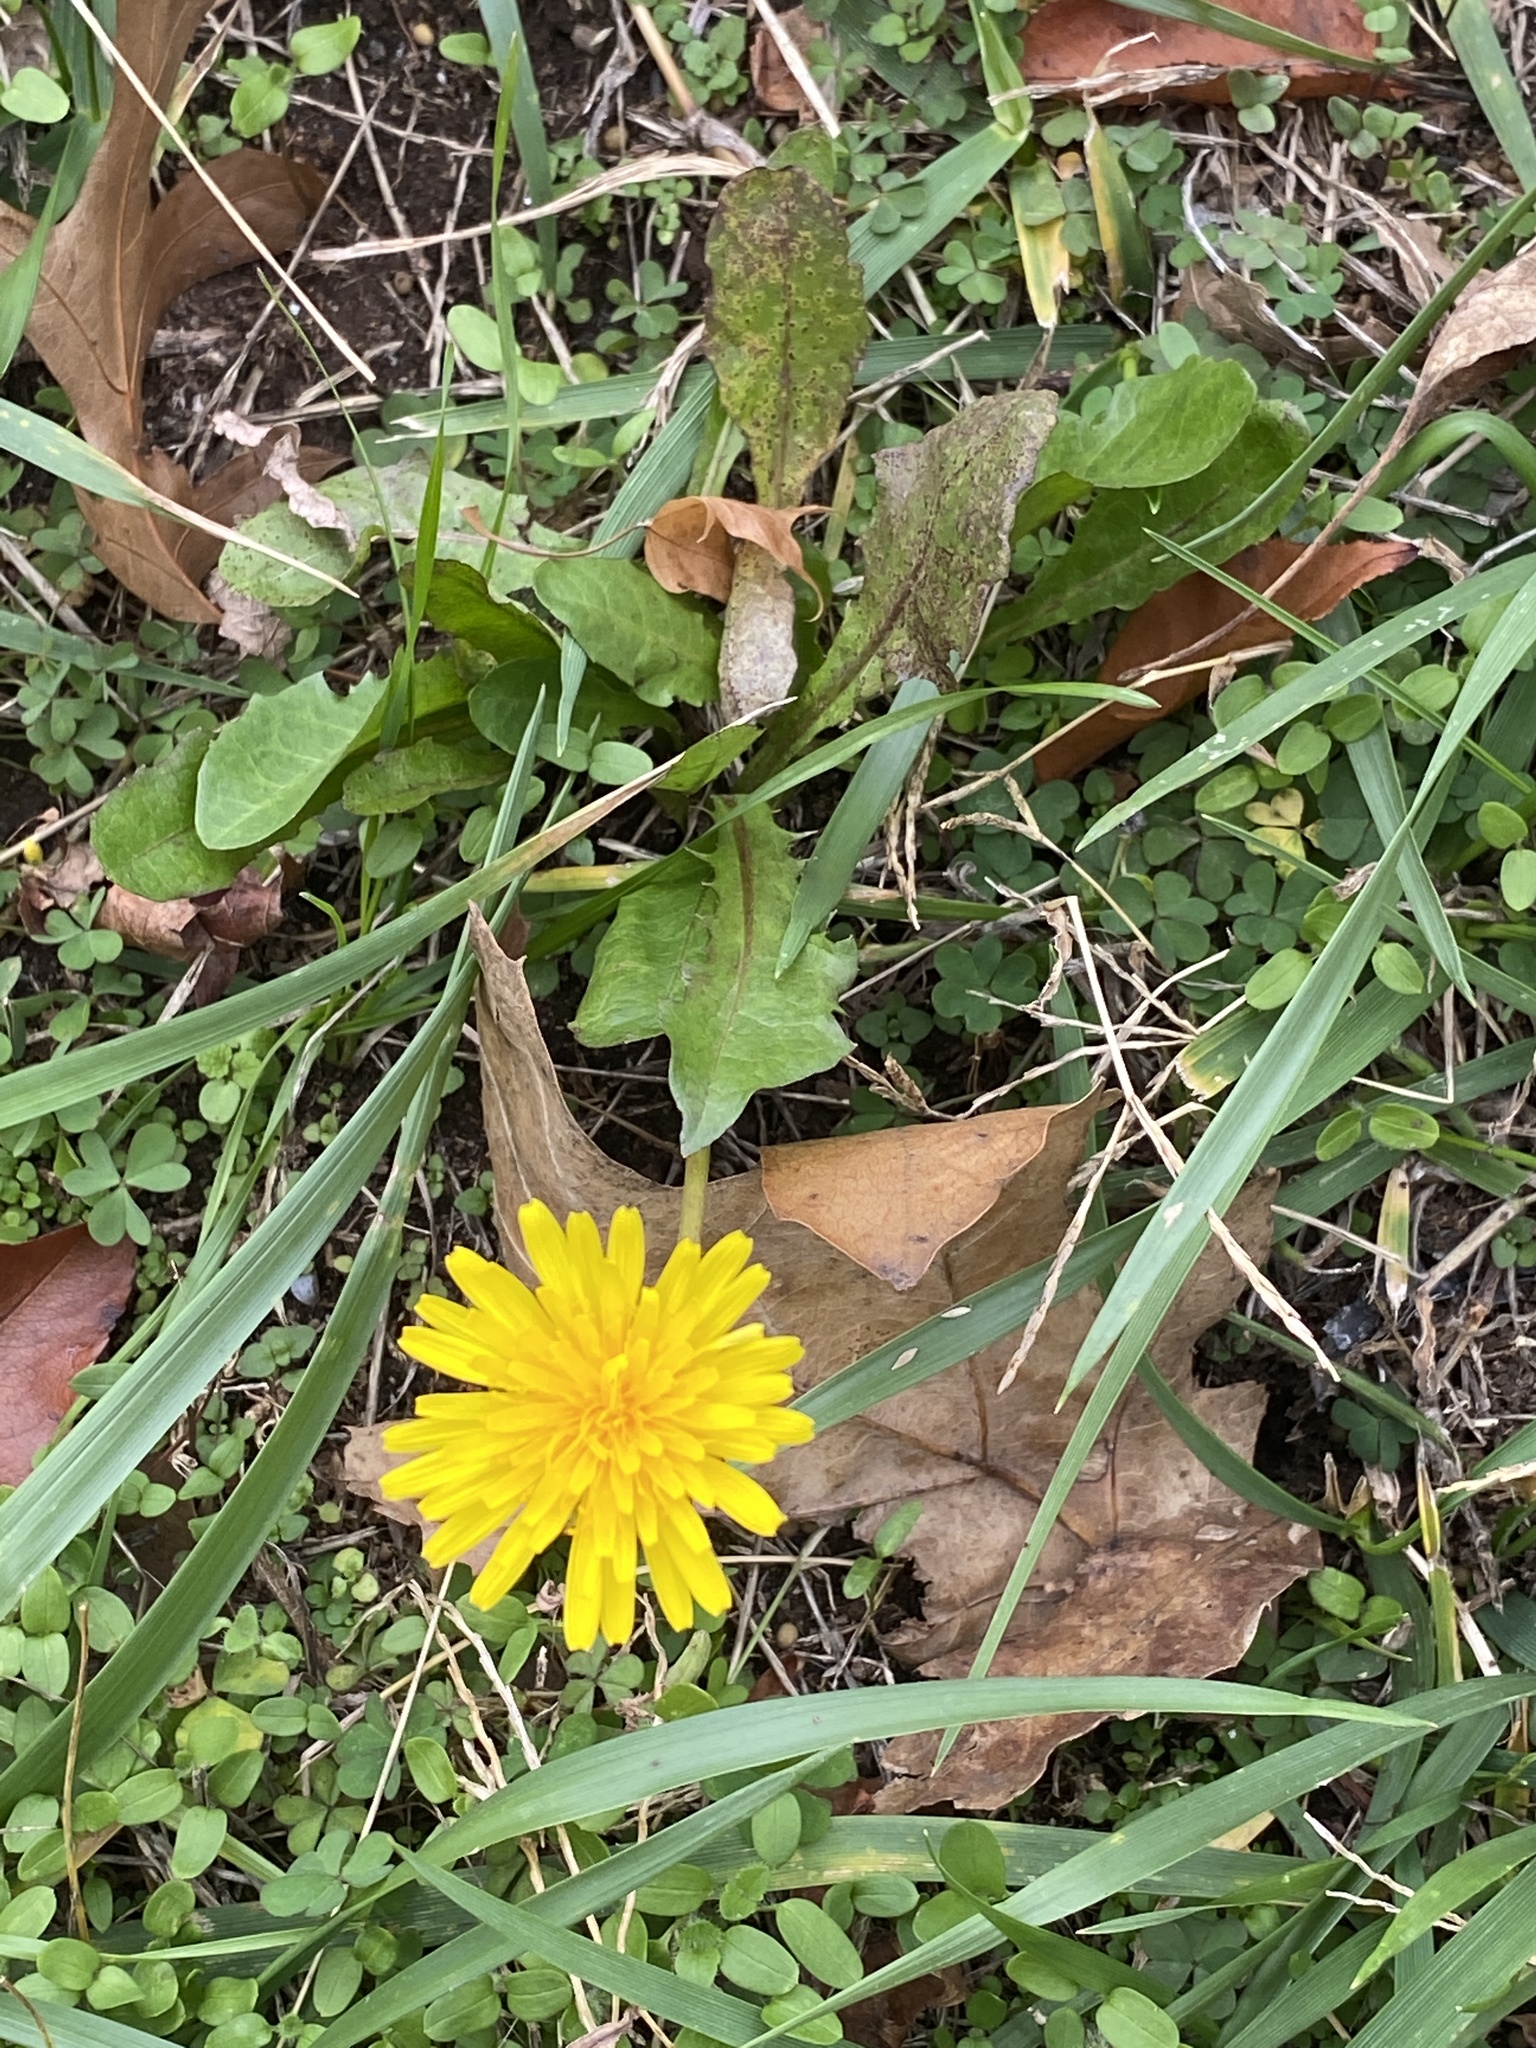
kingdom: Plantae
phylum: Tracheophyta
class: Magnoliopsida
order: Asterales
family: Asteraceae
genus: Taraxacum
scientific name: Taraxacum officinale
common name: Common dandelion
